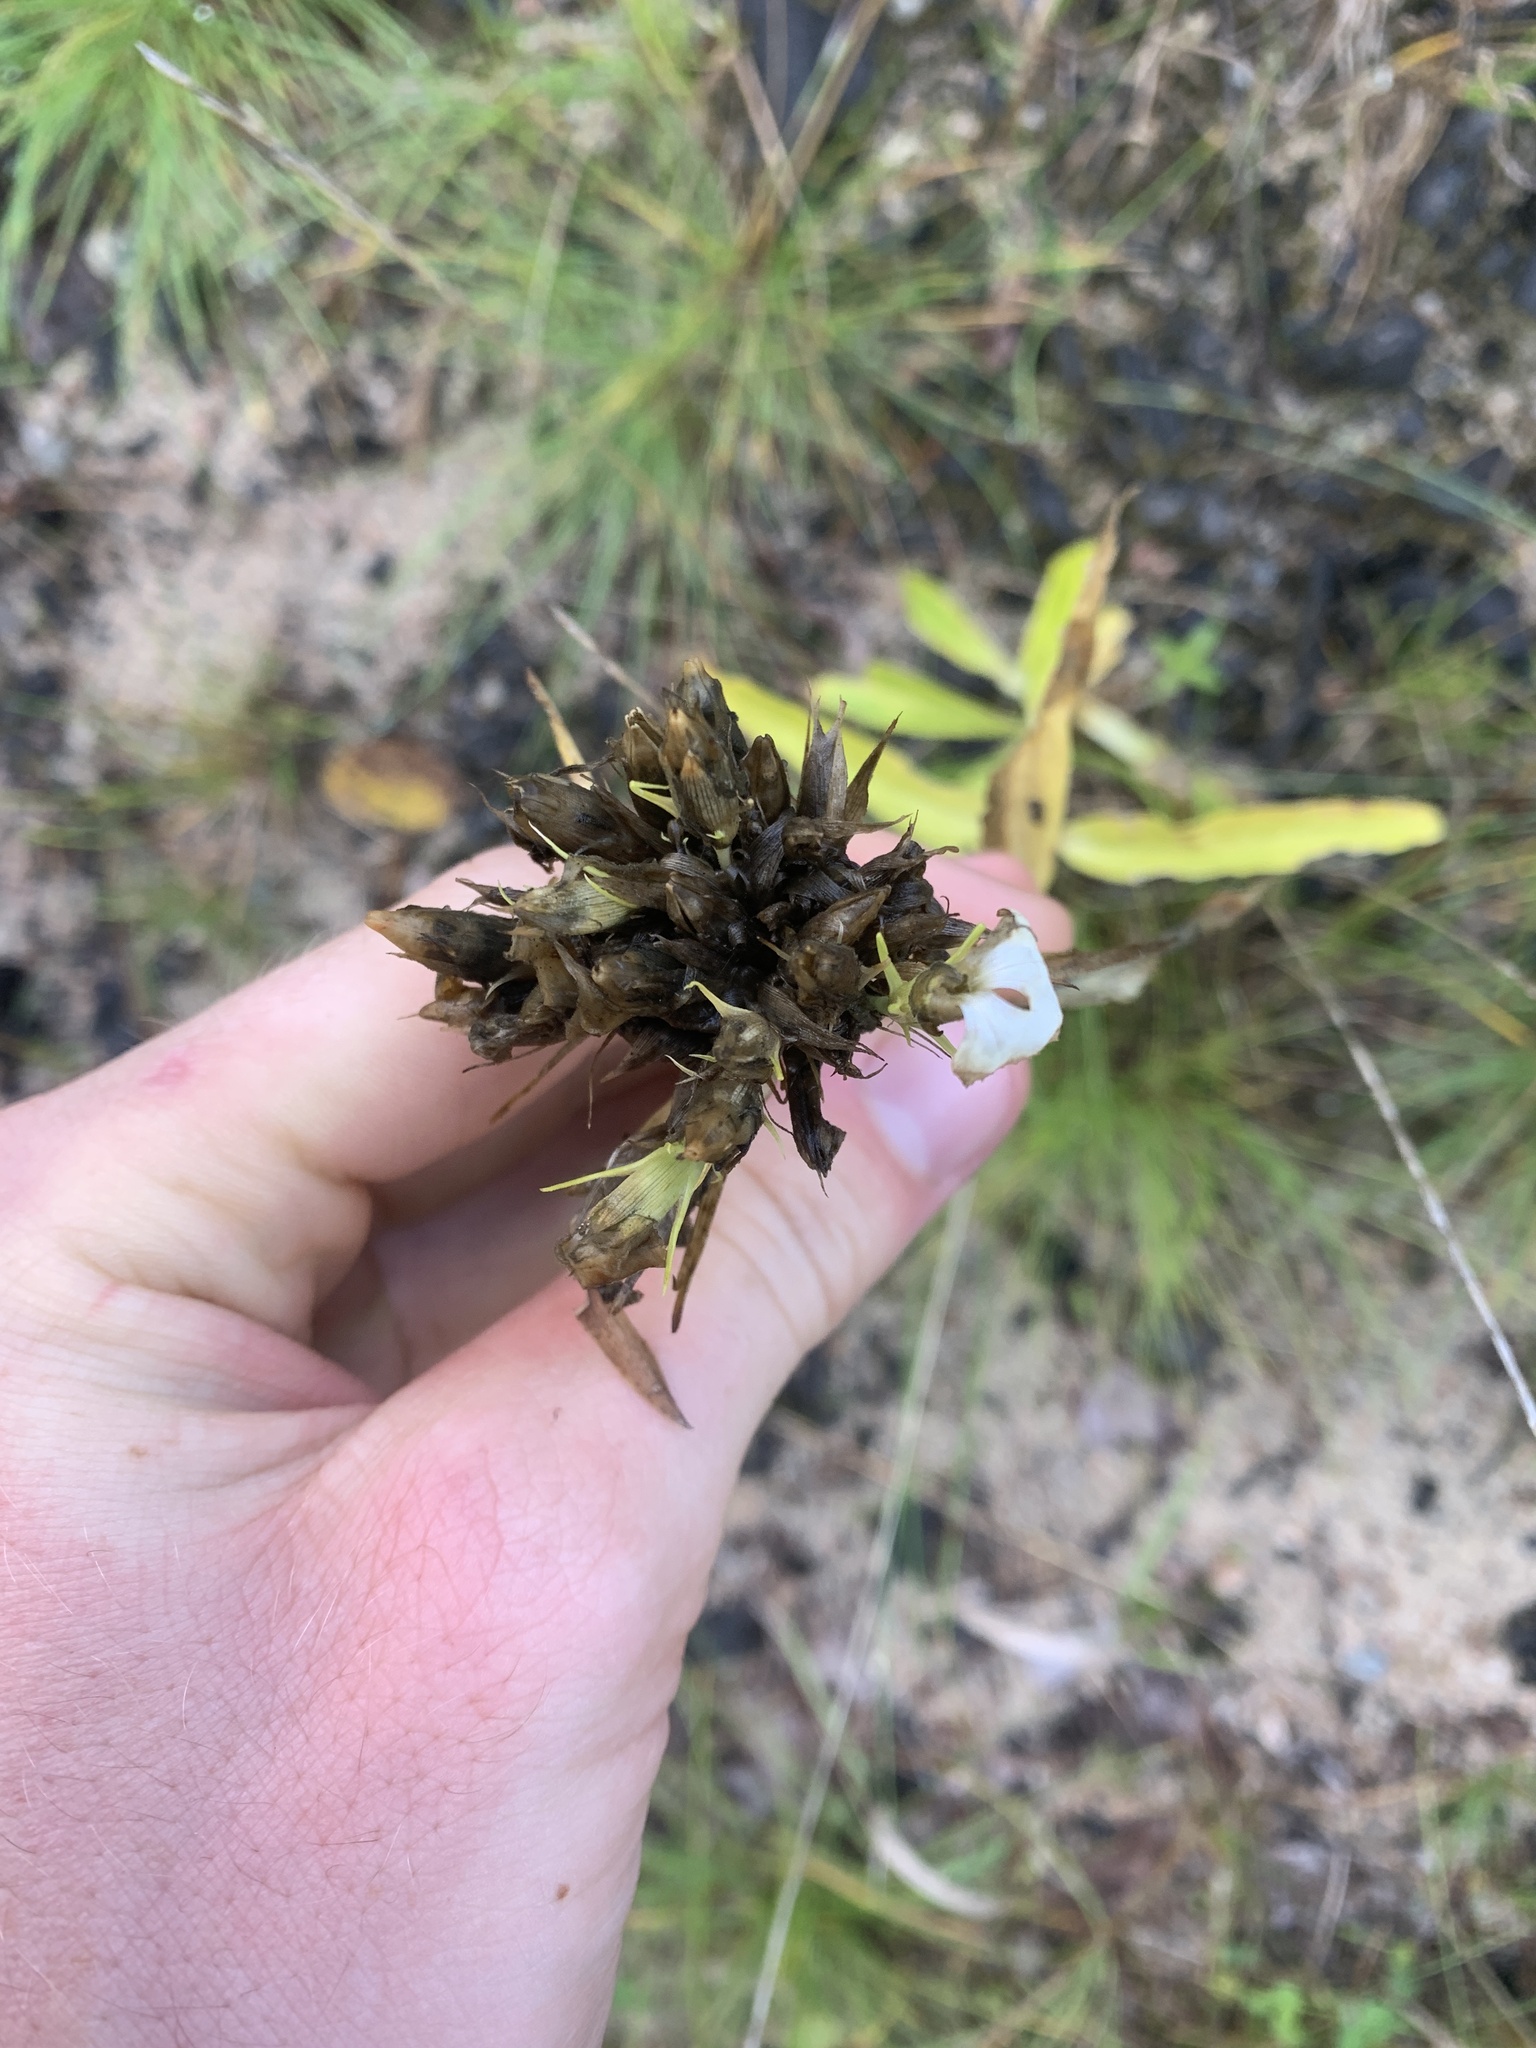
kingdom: Plantae
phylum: Tracheophyta
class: Magnoliopsida
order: Caryophyllales
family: Caryophyllaceae
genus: Dianthus
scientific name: Dianthus barbatus
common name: Sweet-william
